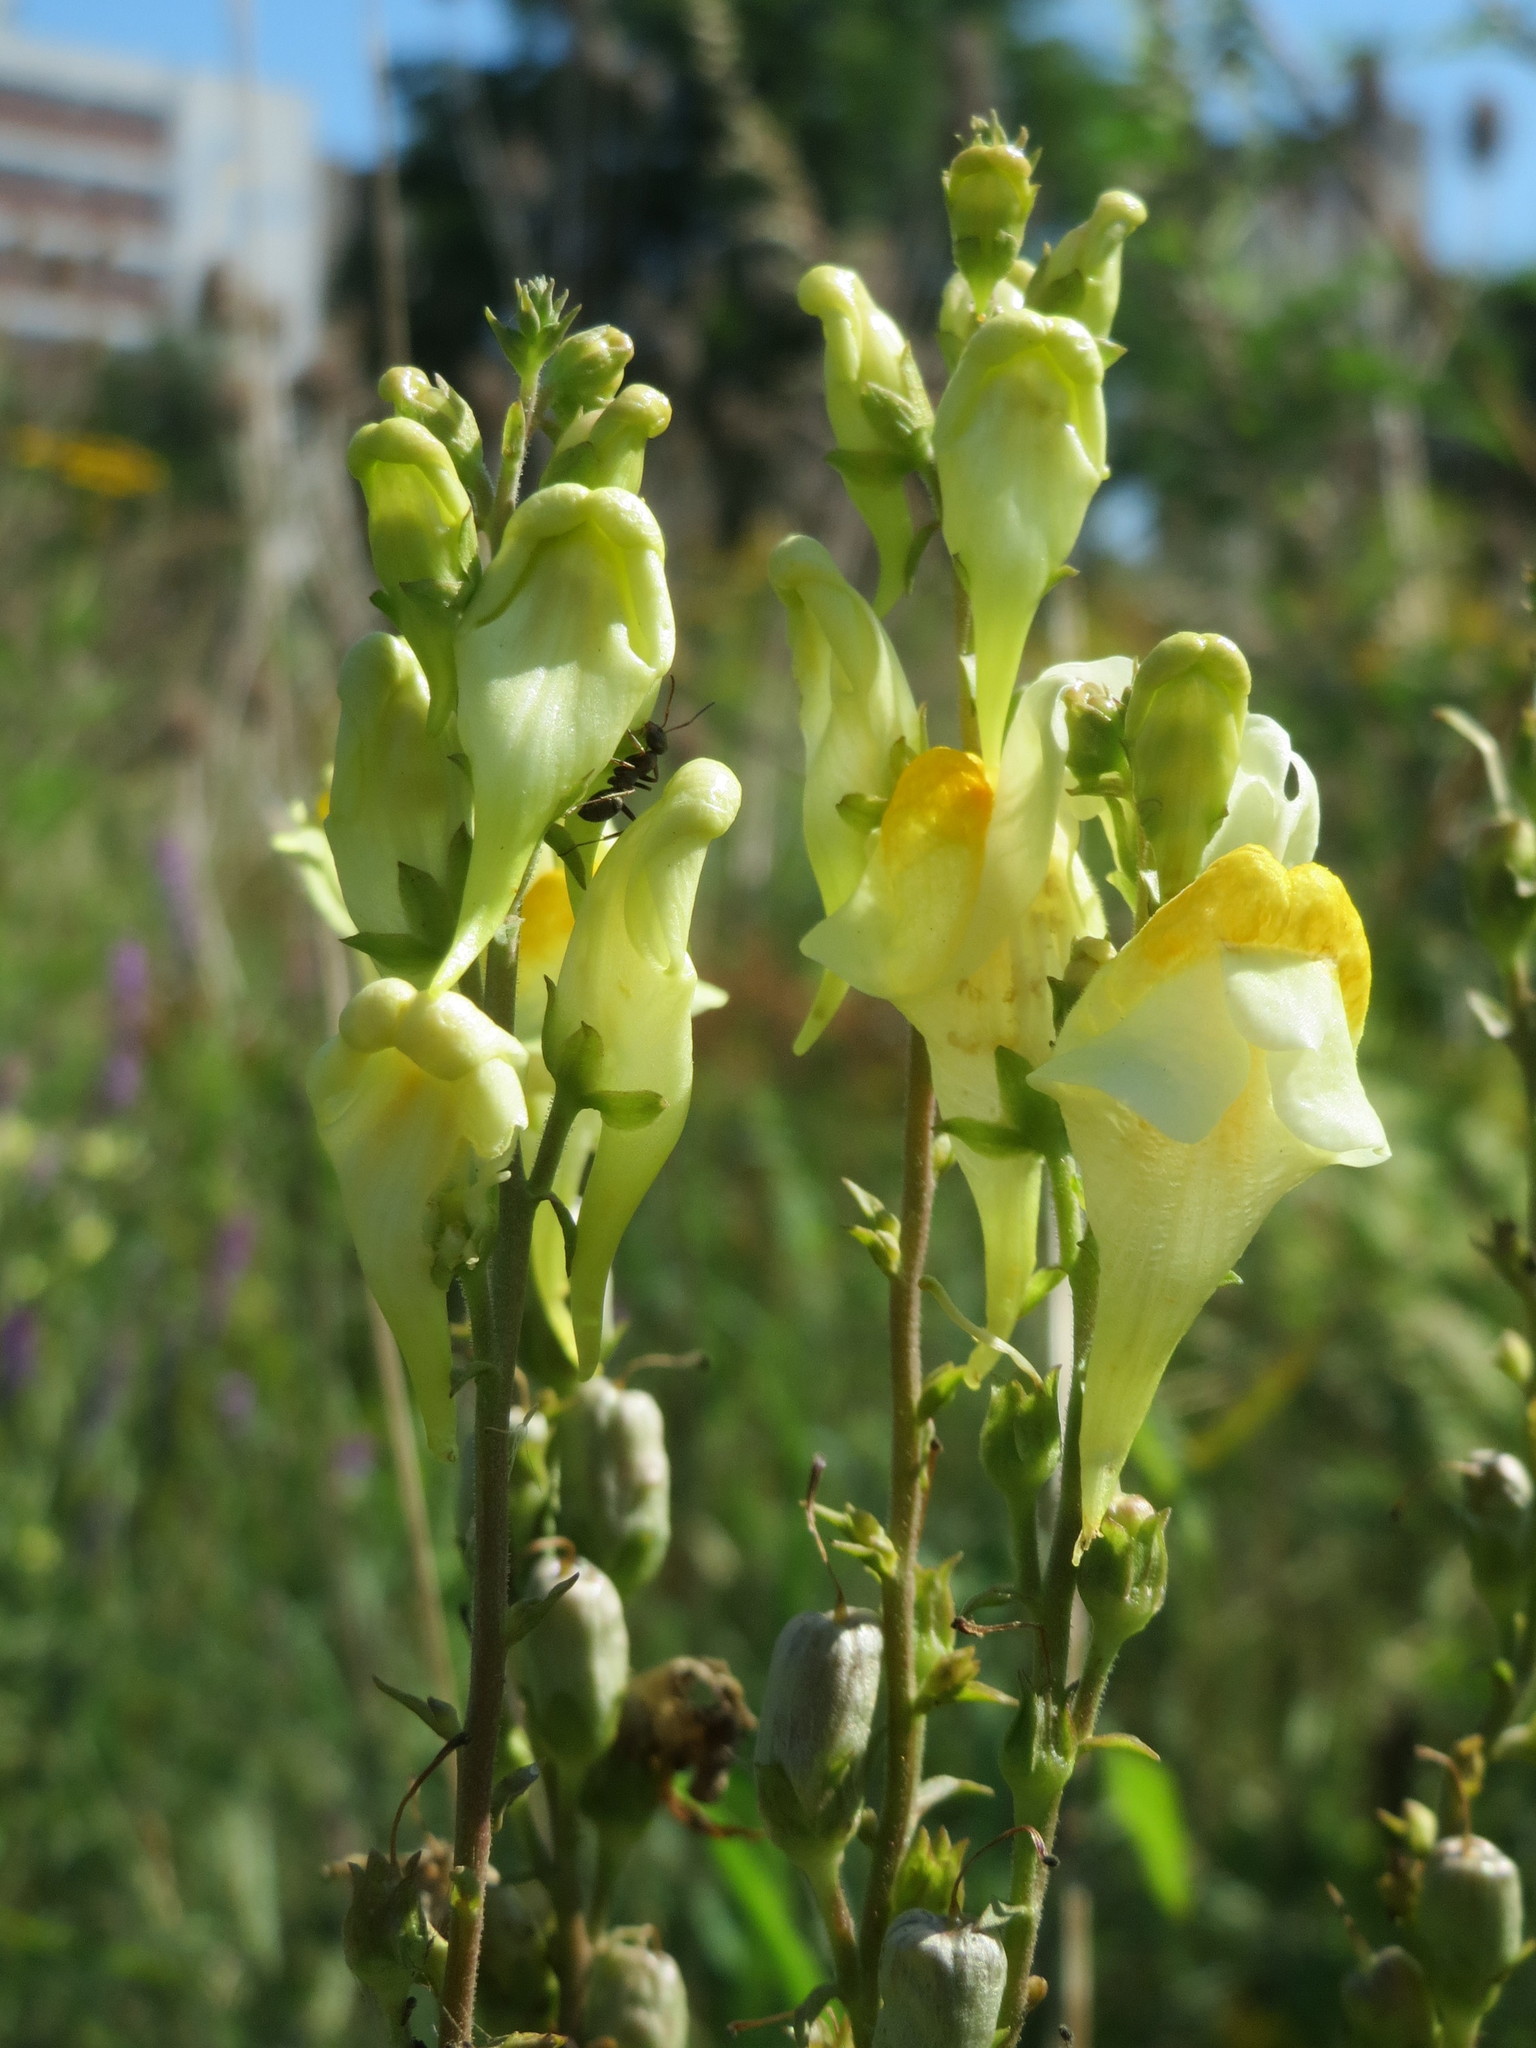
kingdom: Plantae
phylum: Tracheophyta
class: Magnoliopsida
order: Lamiales
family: Plantaginaceae
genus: Linaria
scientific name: Linaria vulgaris
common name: Butter and eggs
